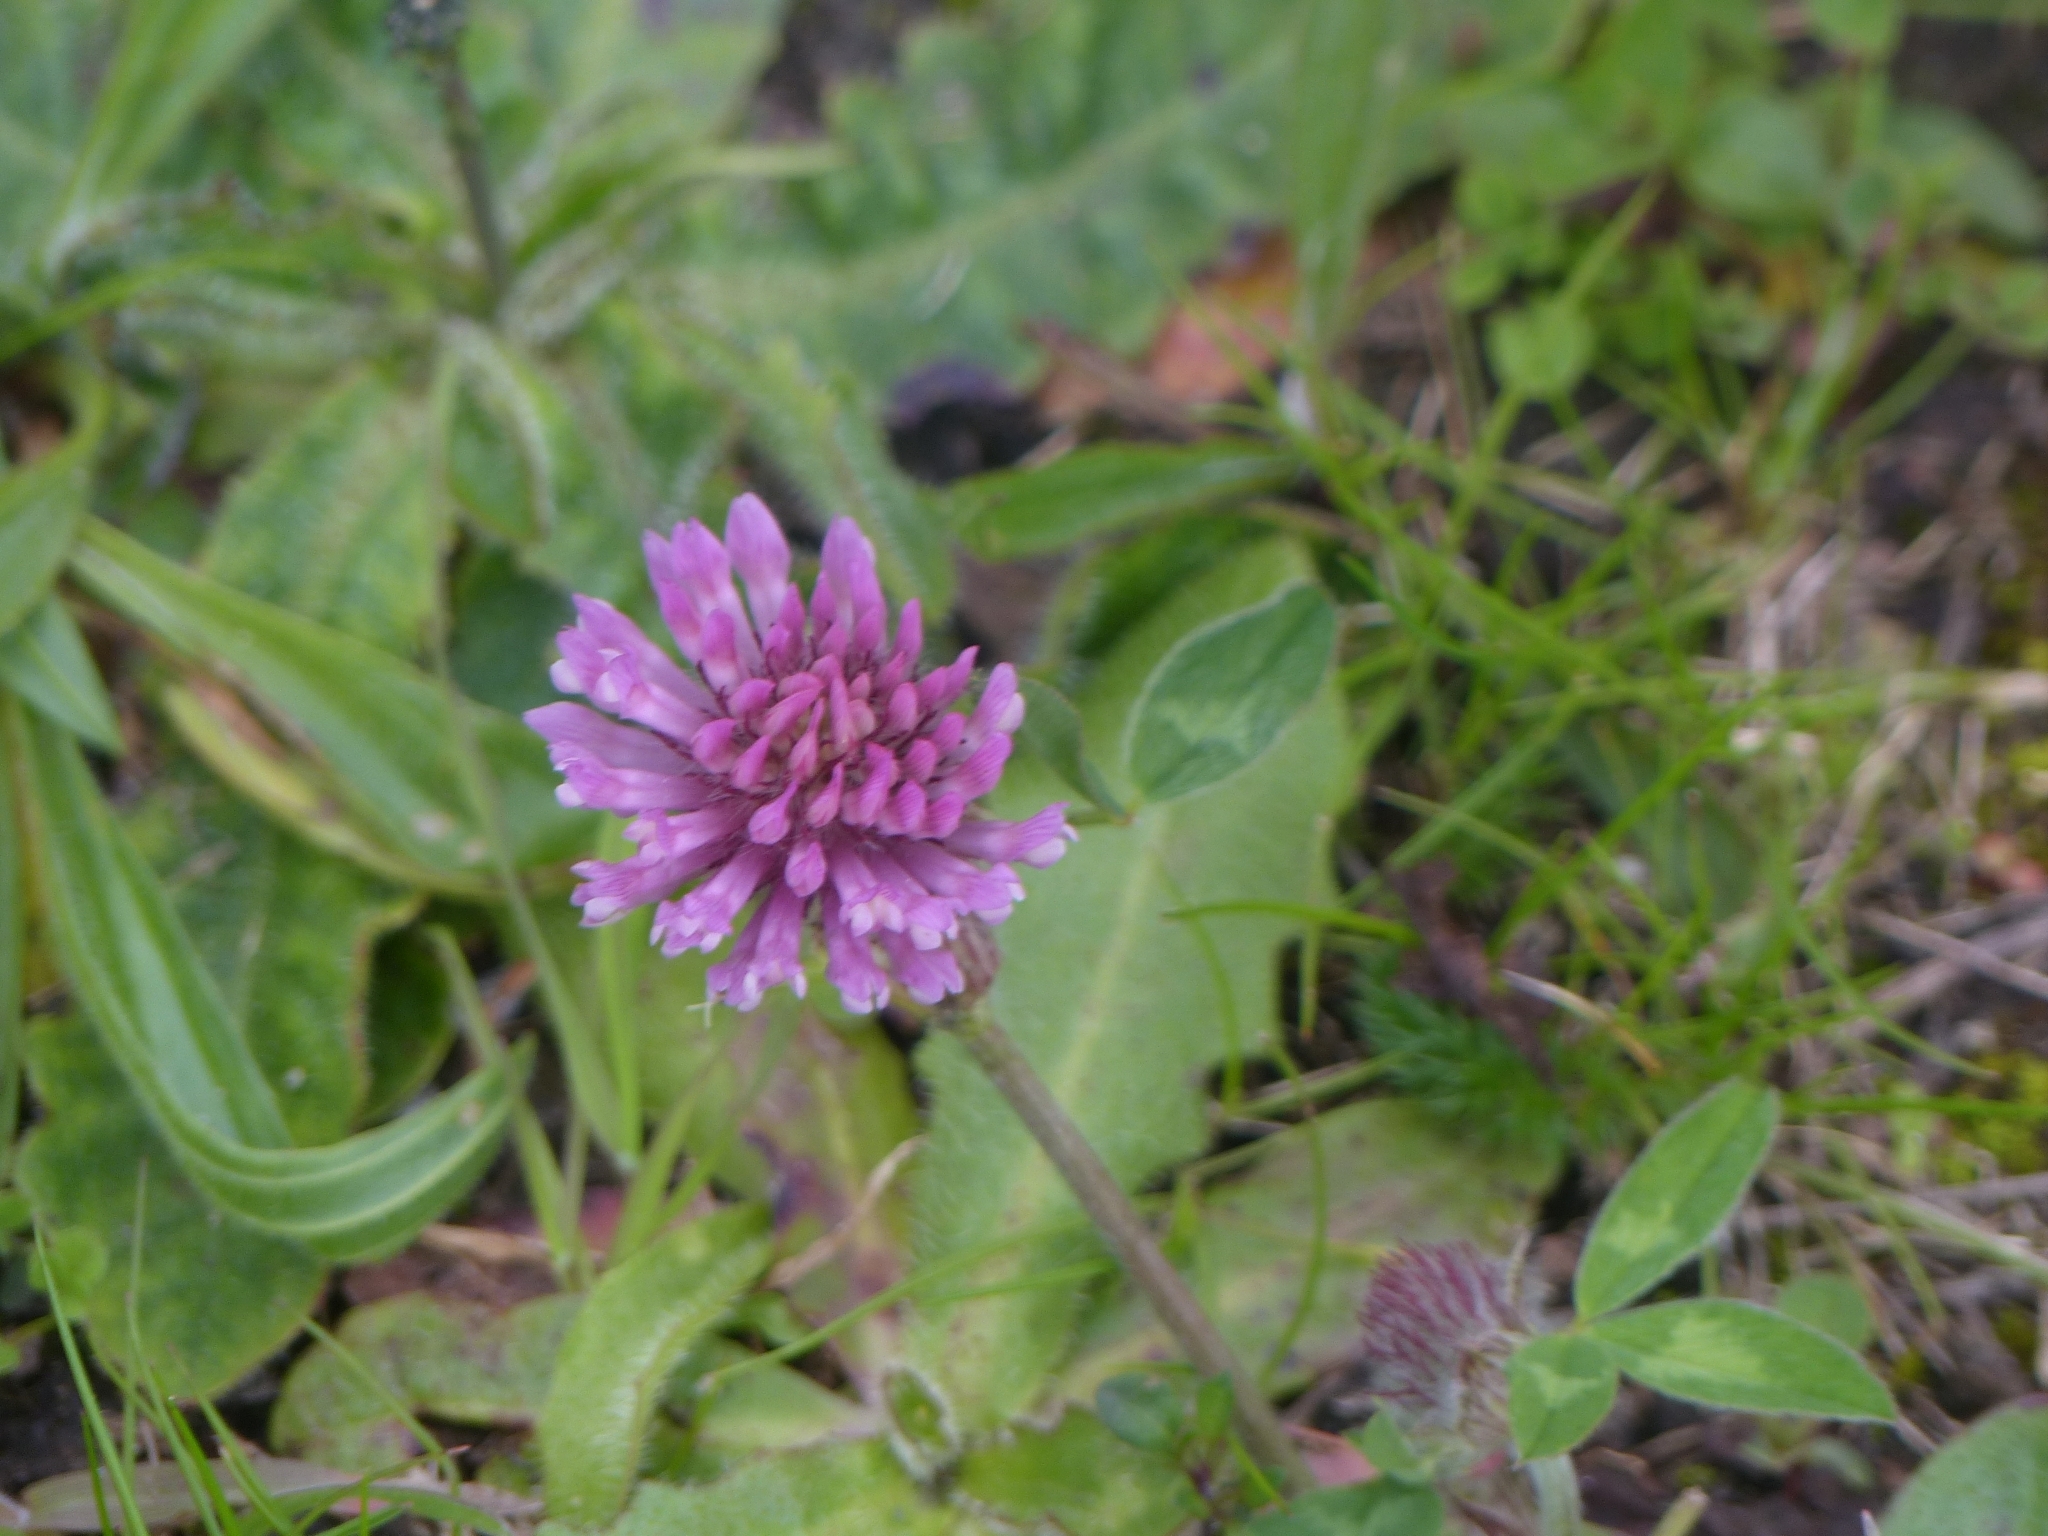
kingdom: Plantae
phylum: Tracheophyta
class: Magnoliopsida
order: Fabales
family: Fabaceae
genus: Trifolium
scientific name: Trifolium pratense
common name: Red clover
